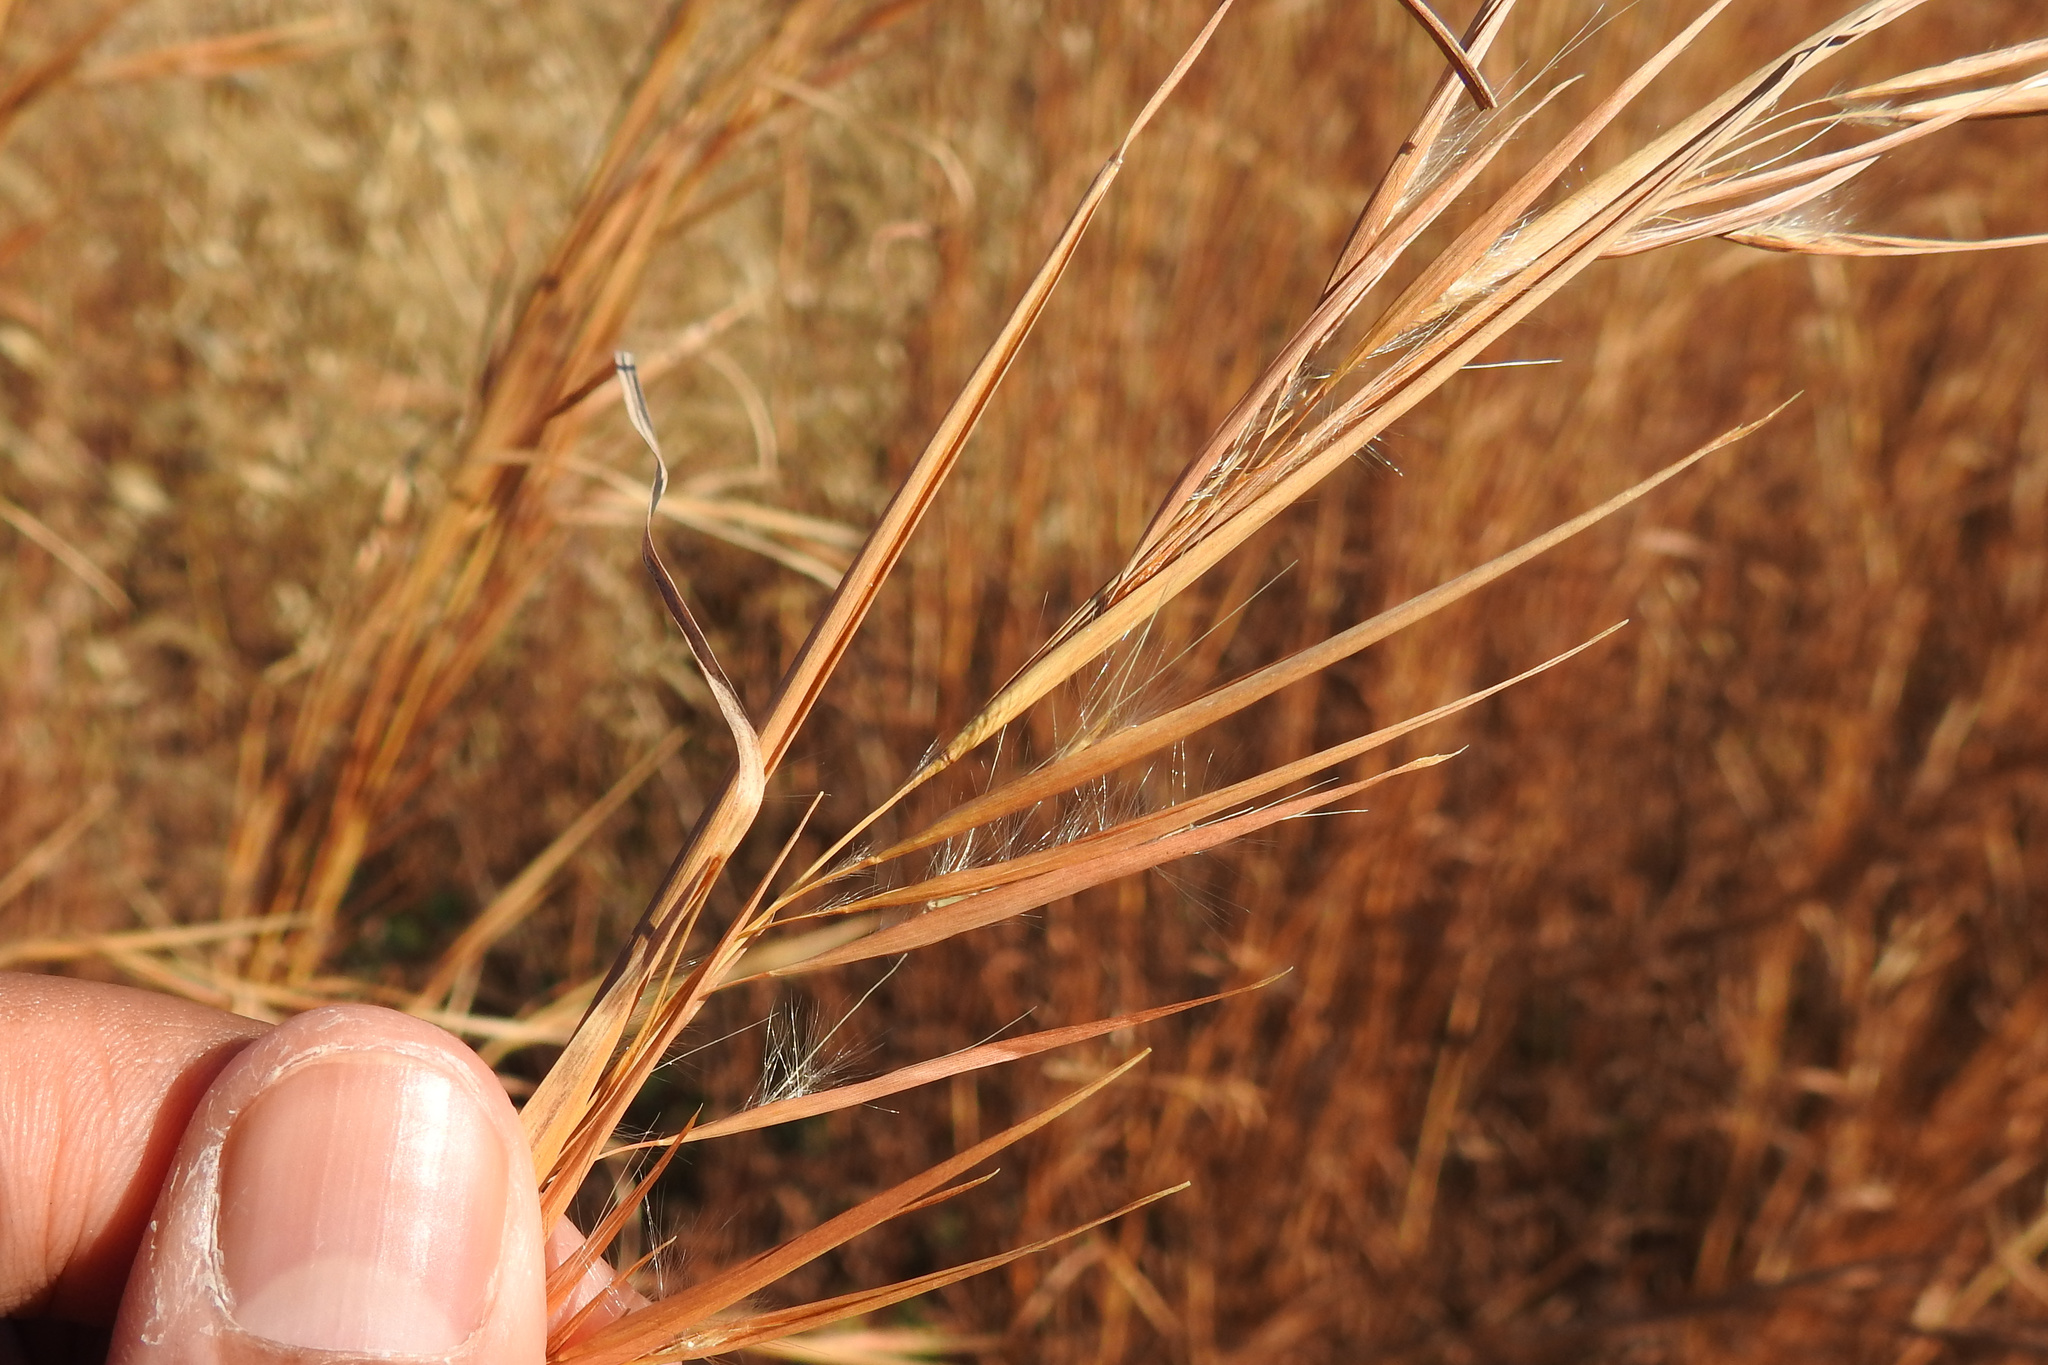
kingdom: Plantae
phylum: Tracheophyta
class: Liliopsida
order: Poales
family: Poaceae
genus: Andropogon
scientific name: Andropogon virginicus
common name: Broomsedge bluestem
